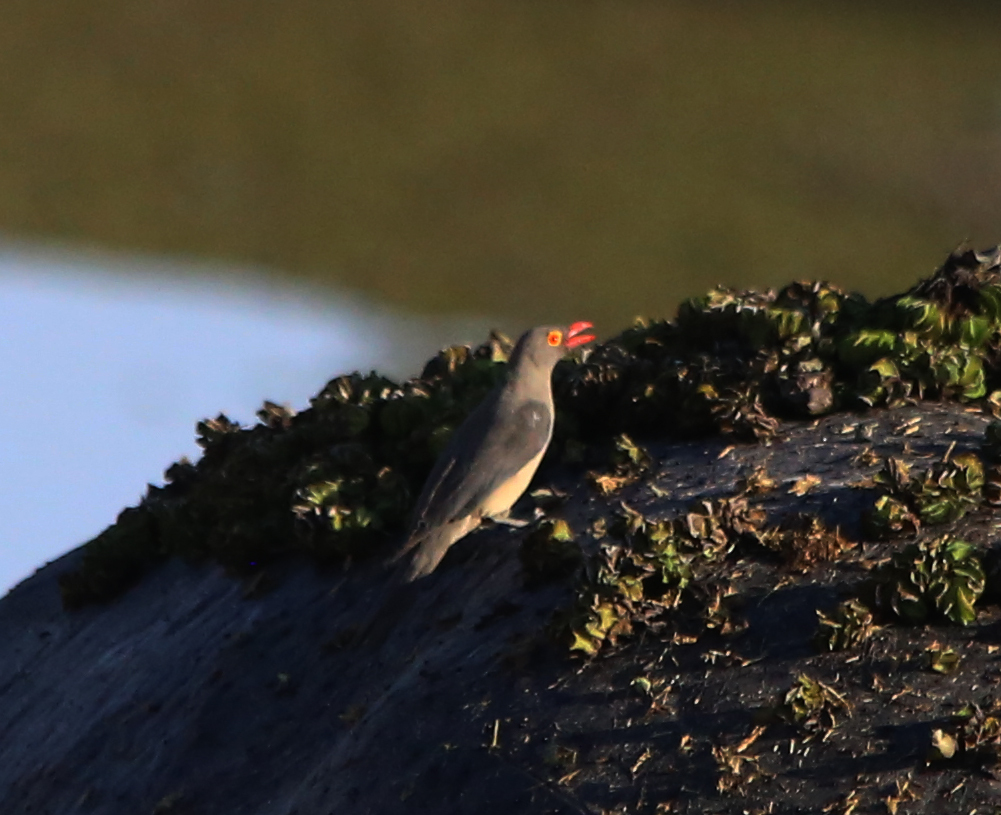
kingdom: Animalia
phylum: Chordata
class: Aves
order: Passeriformes
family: Buphagidae
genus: Buphagus
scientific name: Buphagus erythrorhynchus
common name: Red-billed oxpecker
